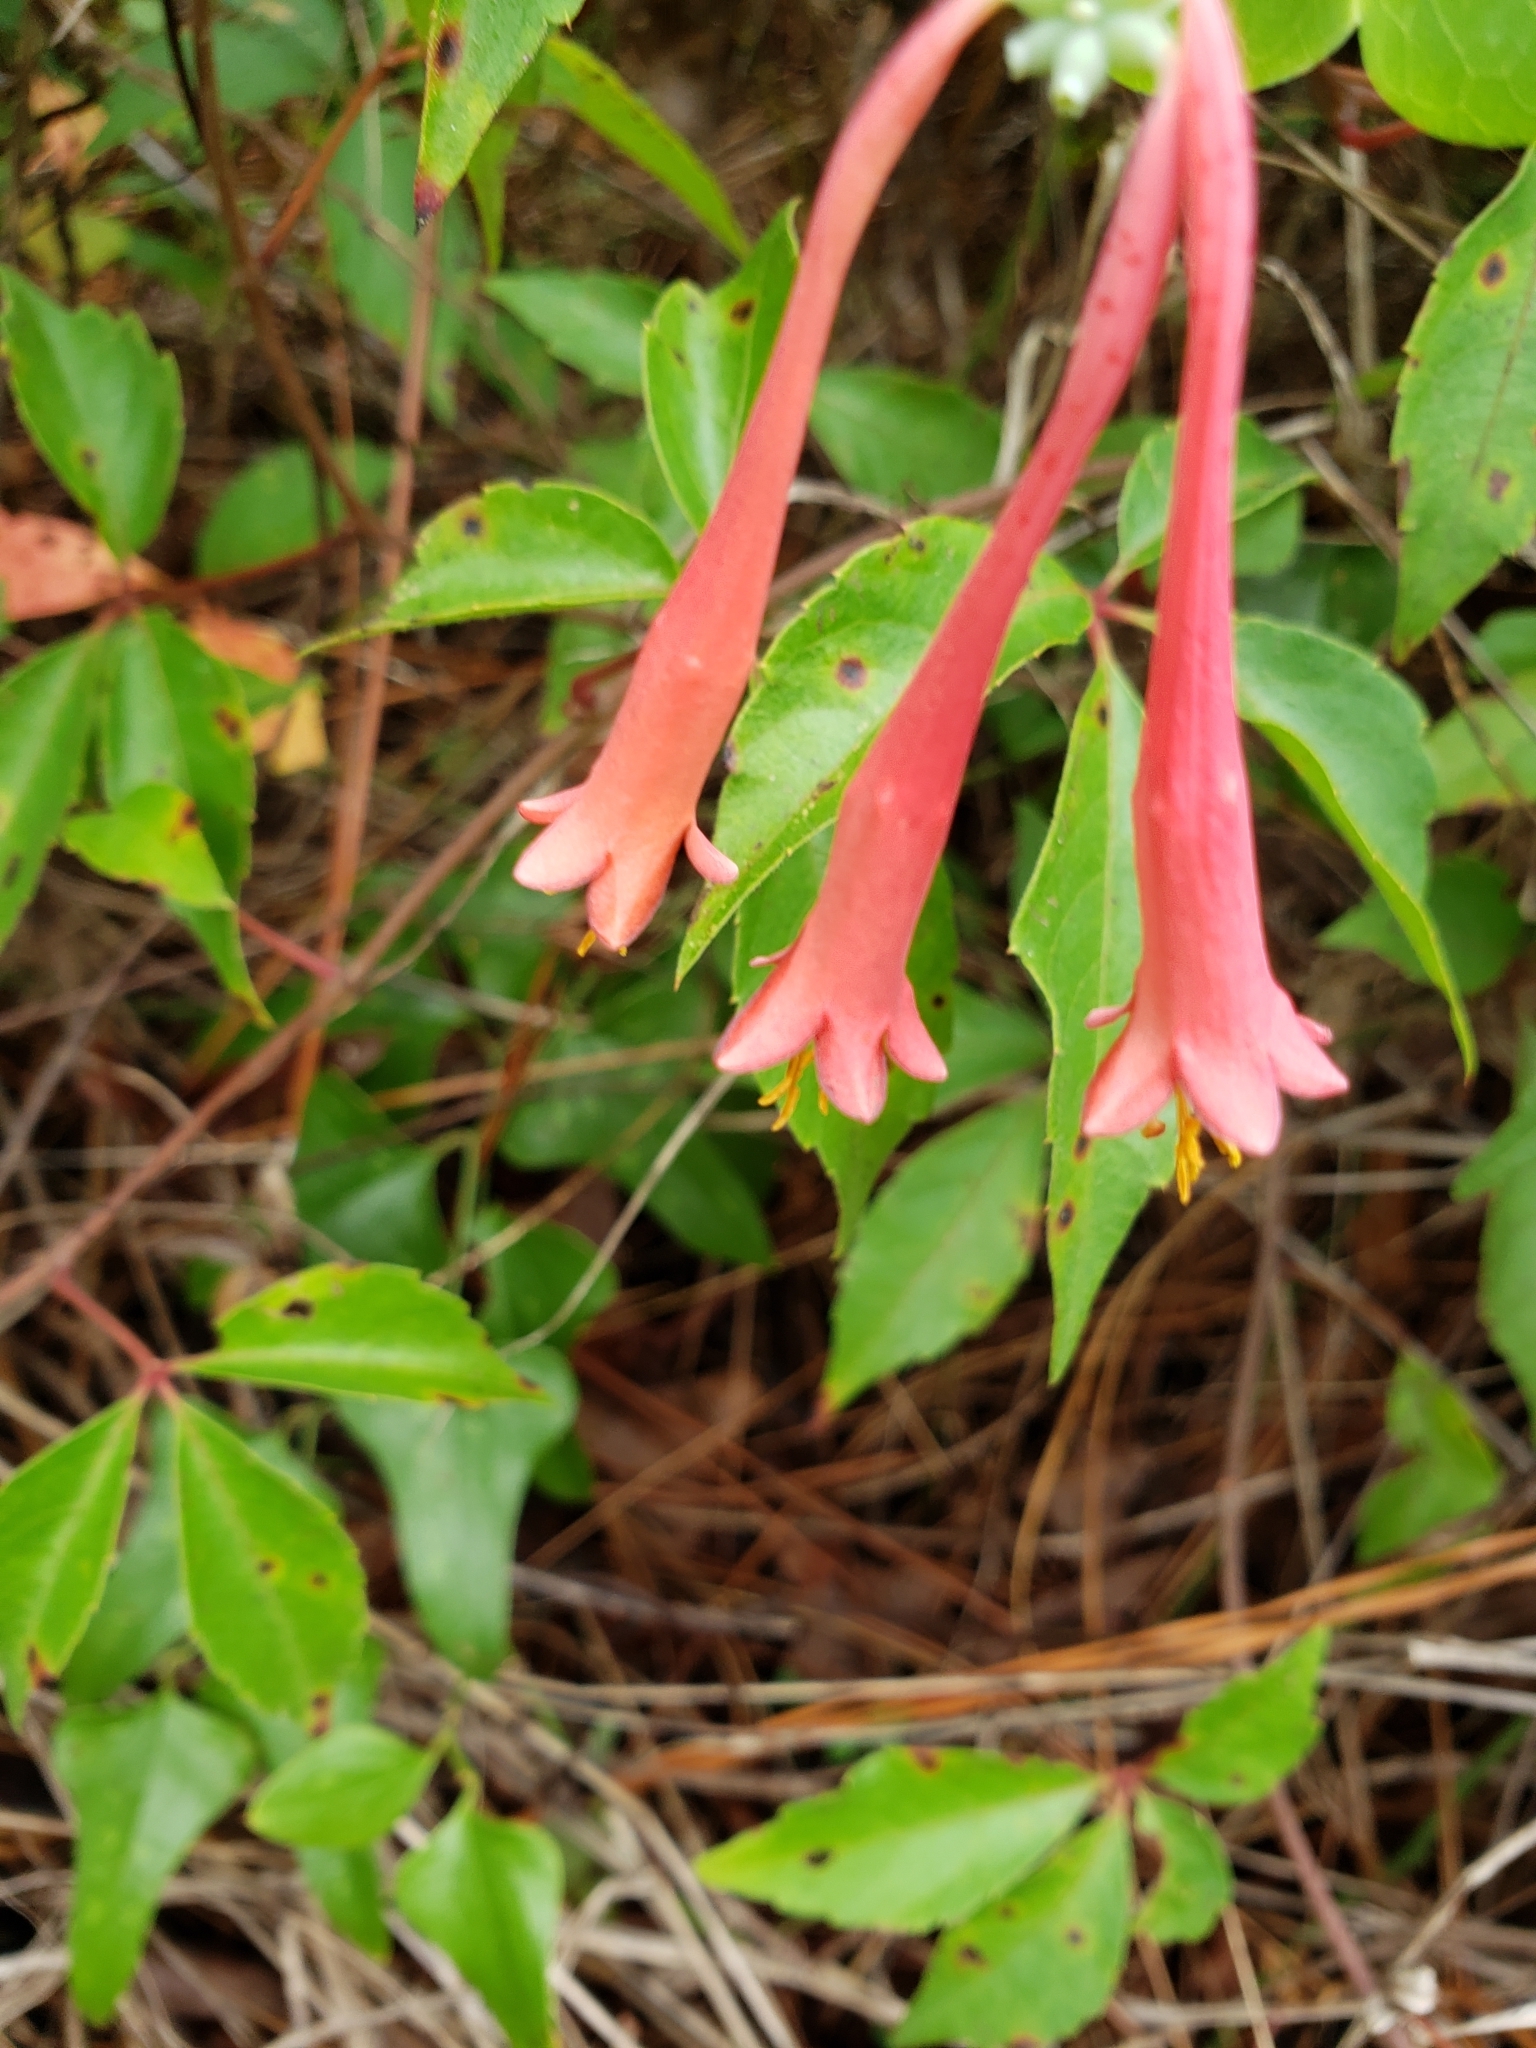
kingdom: Plantae
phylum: Tracheophyta
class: Magnoliopsida
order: Dipsacales
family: Caprifoliaceae
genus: Lonicera
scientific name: Lonicera sempervirens
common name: Coral honeysuckle
